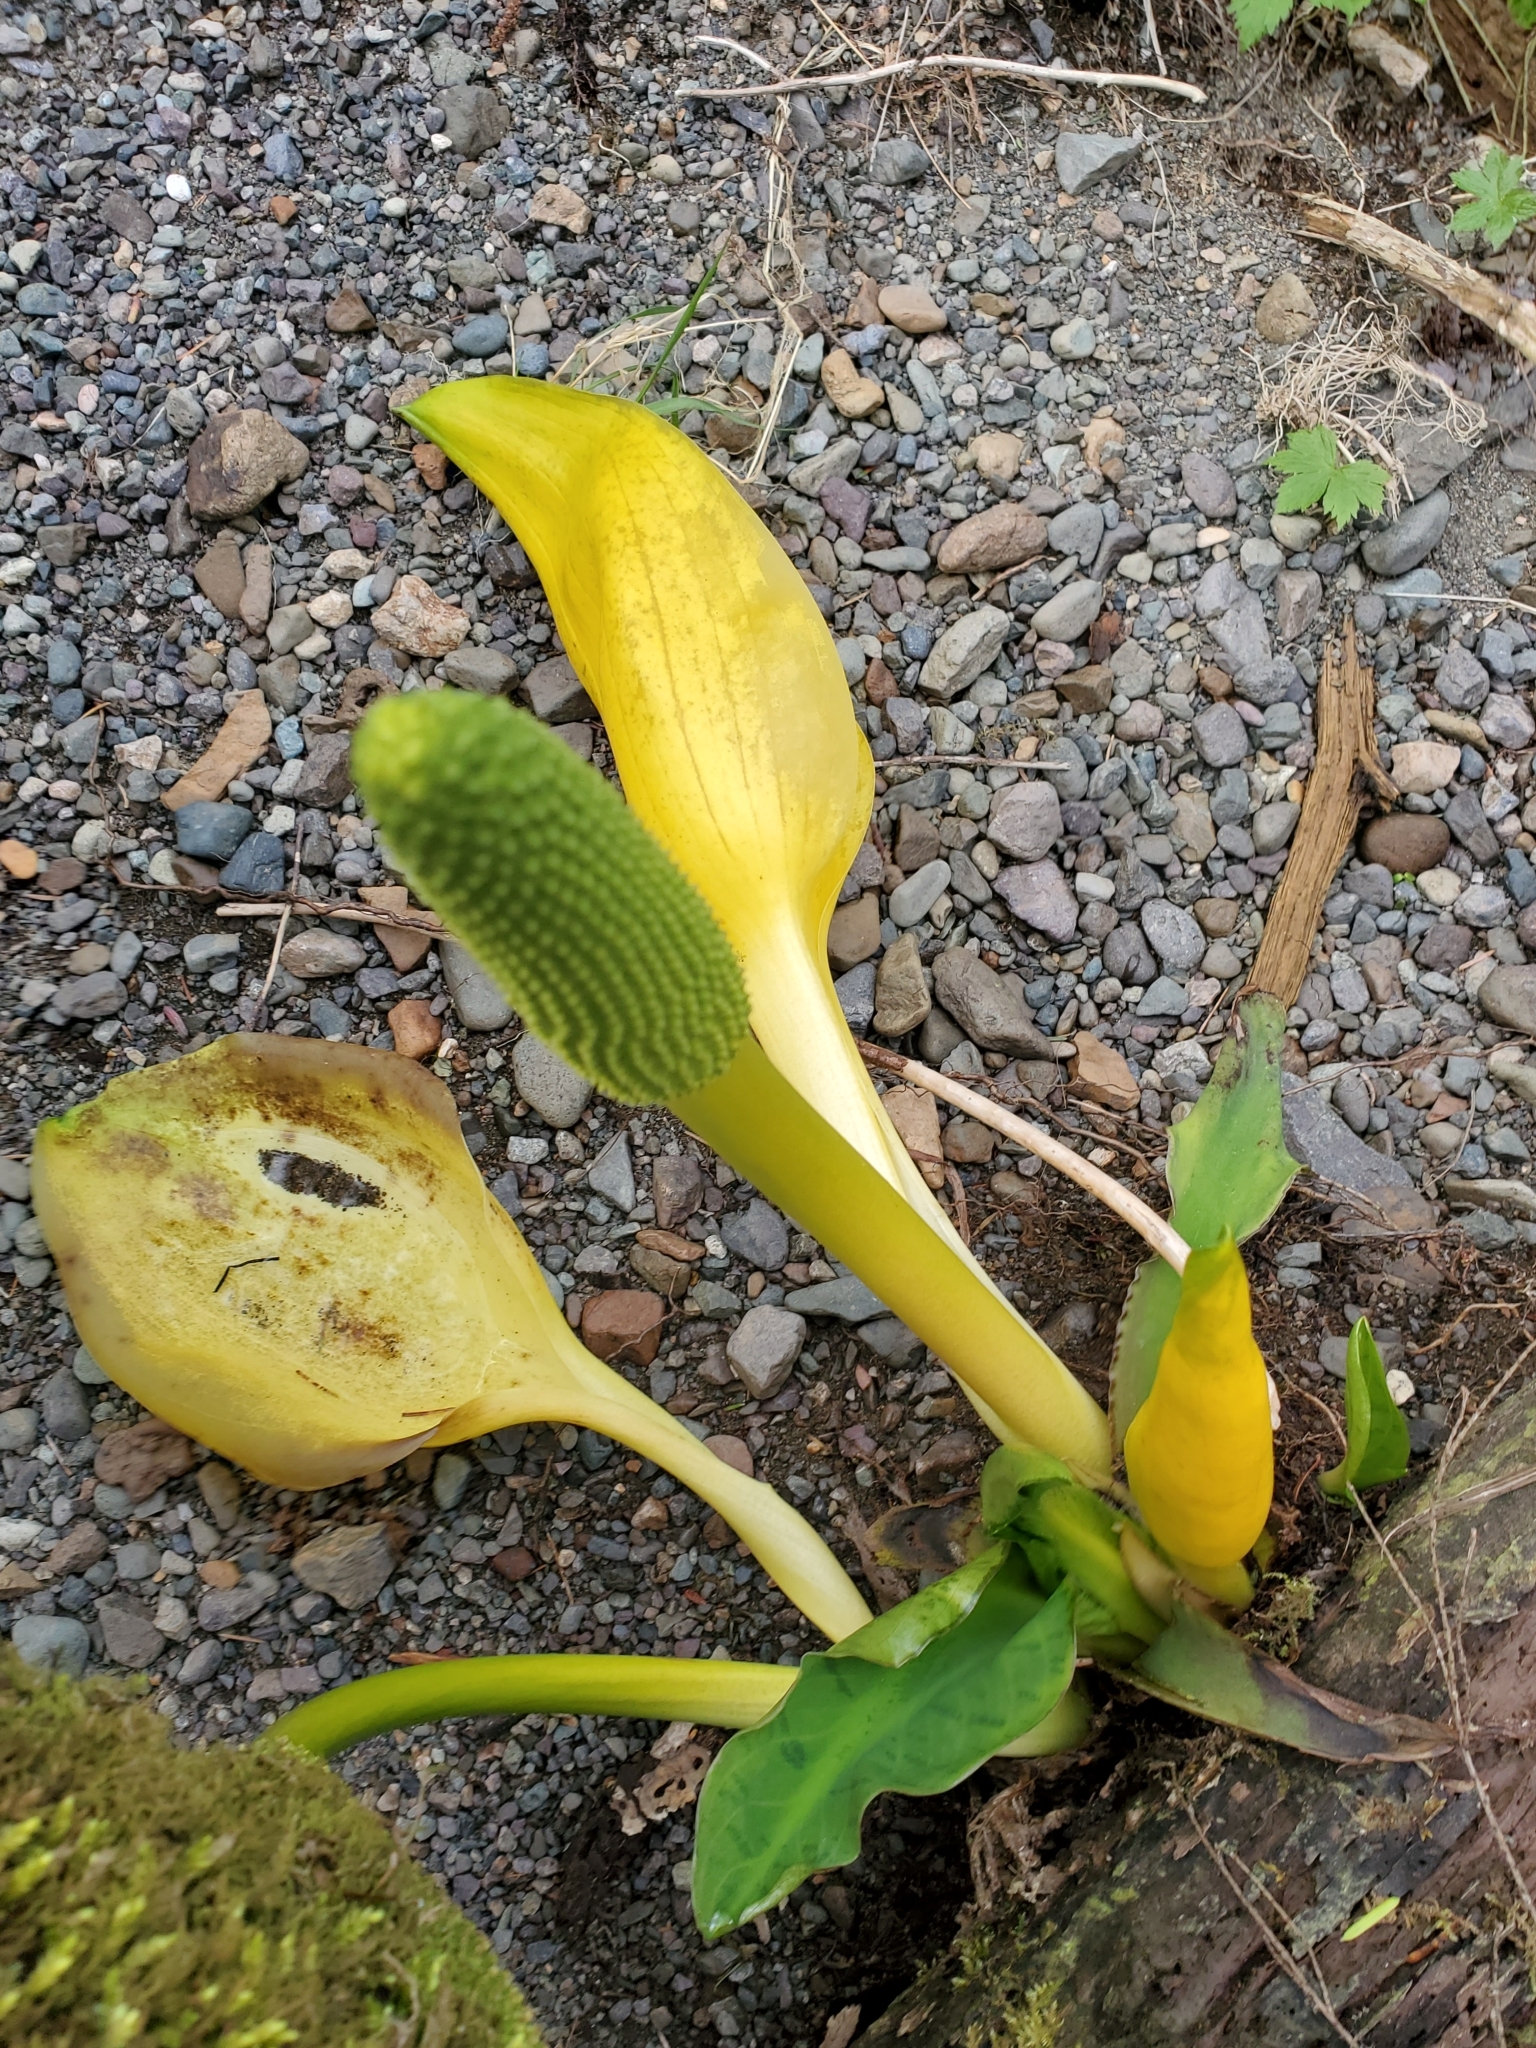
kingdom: Plantae
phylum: Tracheophyta
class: Liliopsida
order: Alismatales
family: Araceae
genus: Lysichiton
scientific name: Lysichiton americanus
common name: American skunk cabbage
